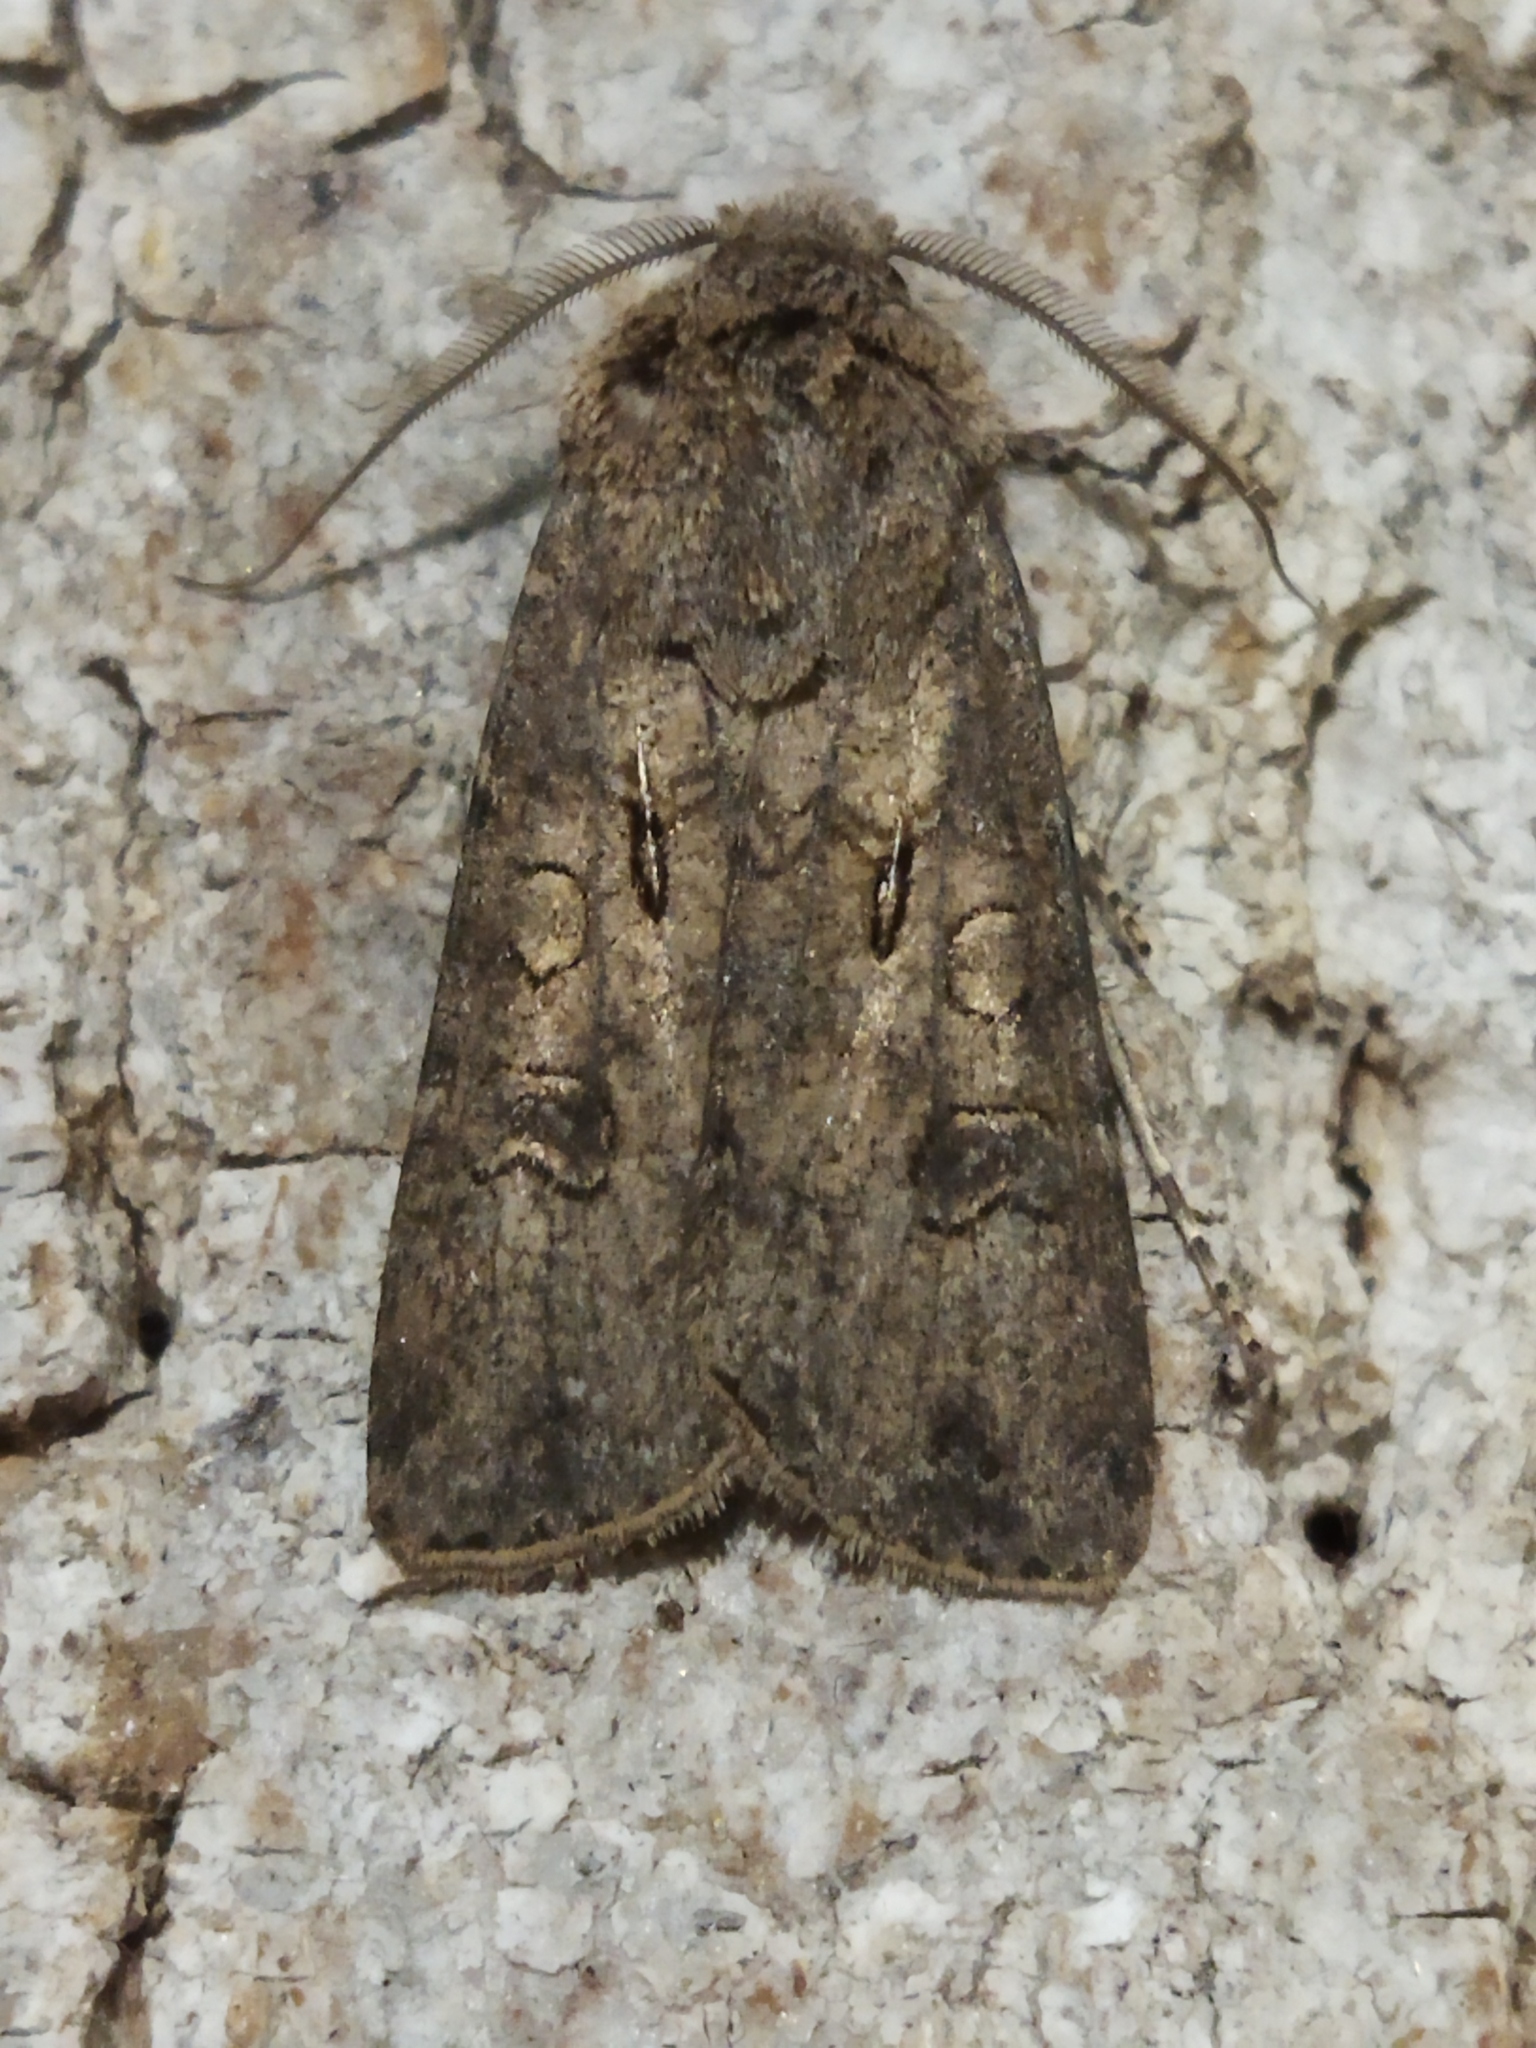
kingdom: Animalia
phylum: Arthropoda
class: Insecta
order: Lepidoptera
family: Noctuidae
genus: Agrotis
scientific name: Agrotis segetum
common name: Turnip moth
